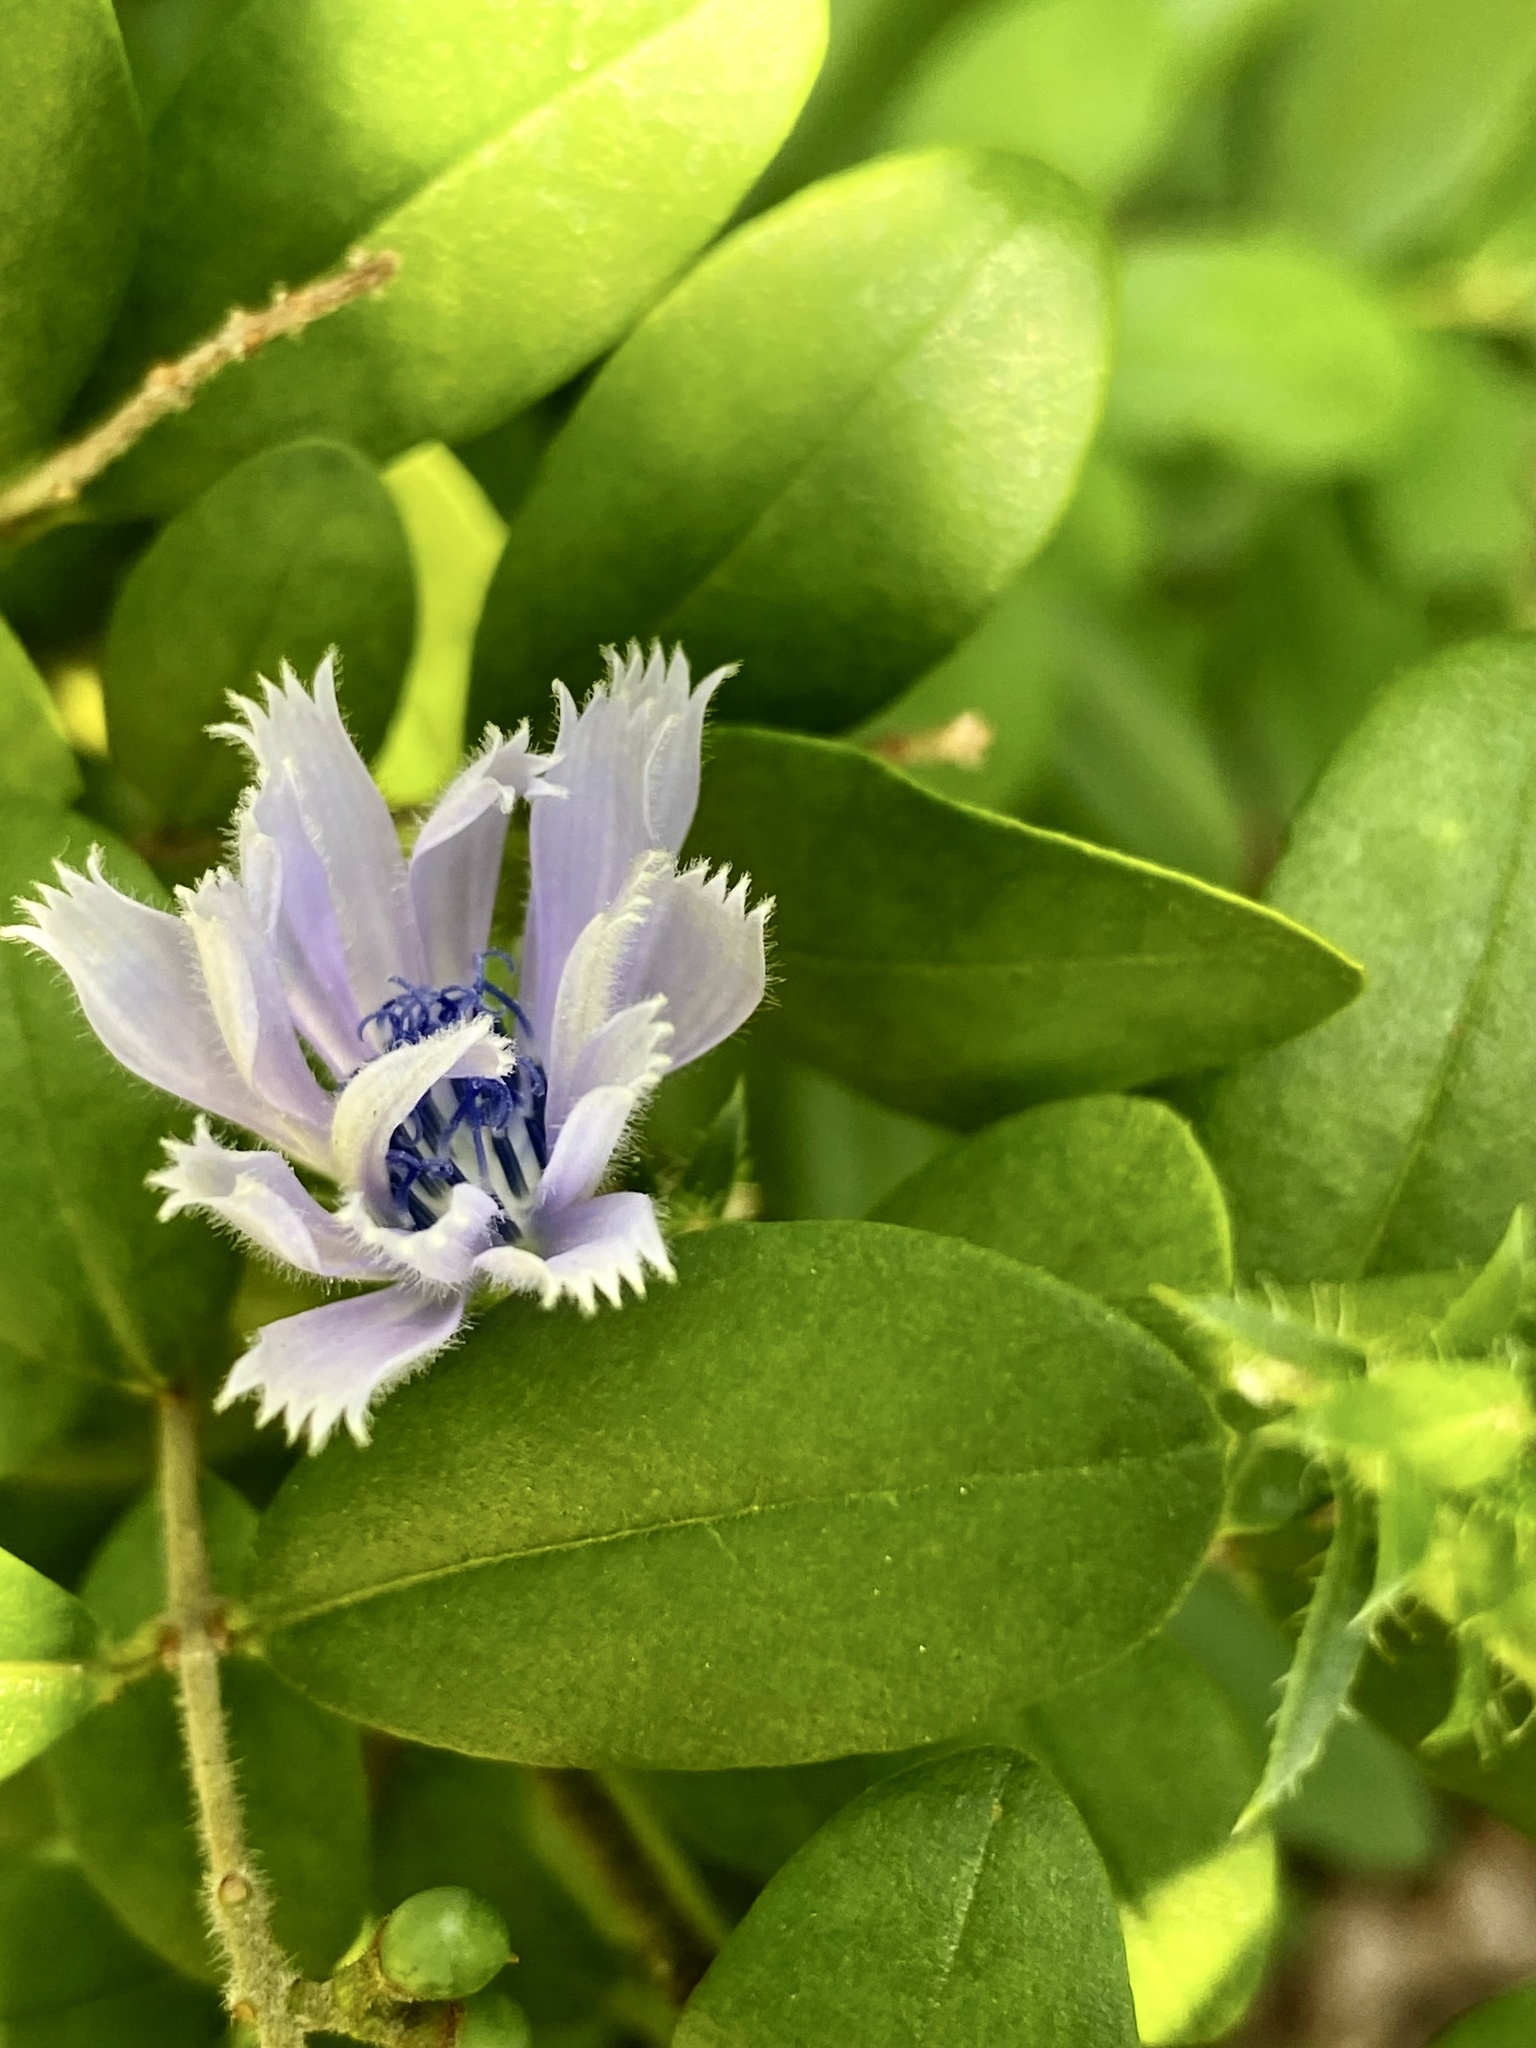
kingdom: Plantae
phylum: Tracheophyta
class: Magnoliopsida
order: Asterales
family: Asteraceae
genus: Cichorium
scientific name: Cichorium intybus
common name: Chicory
